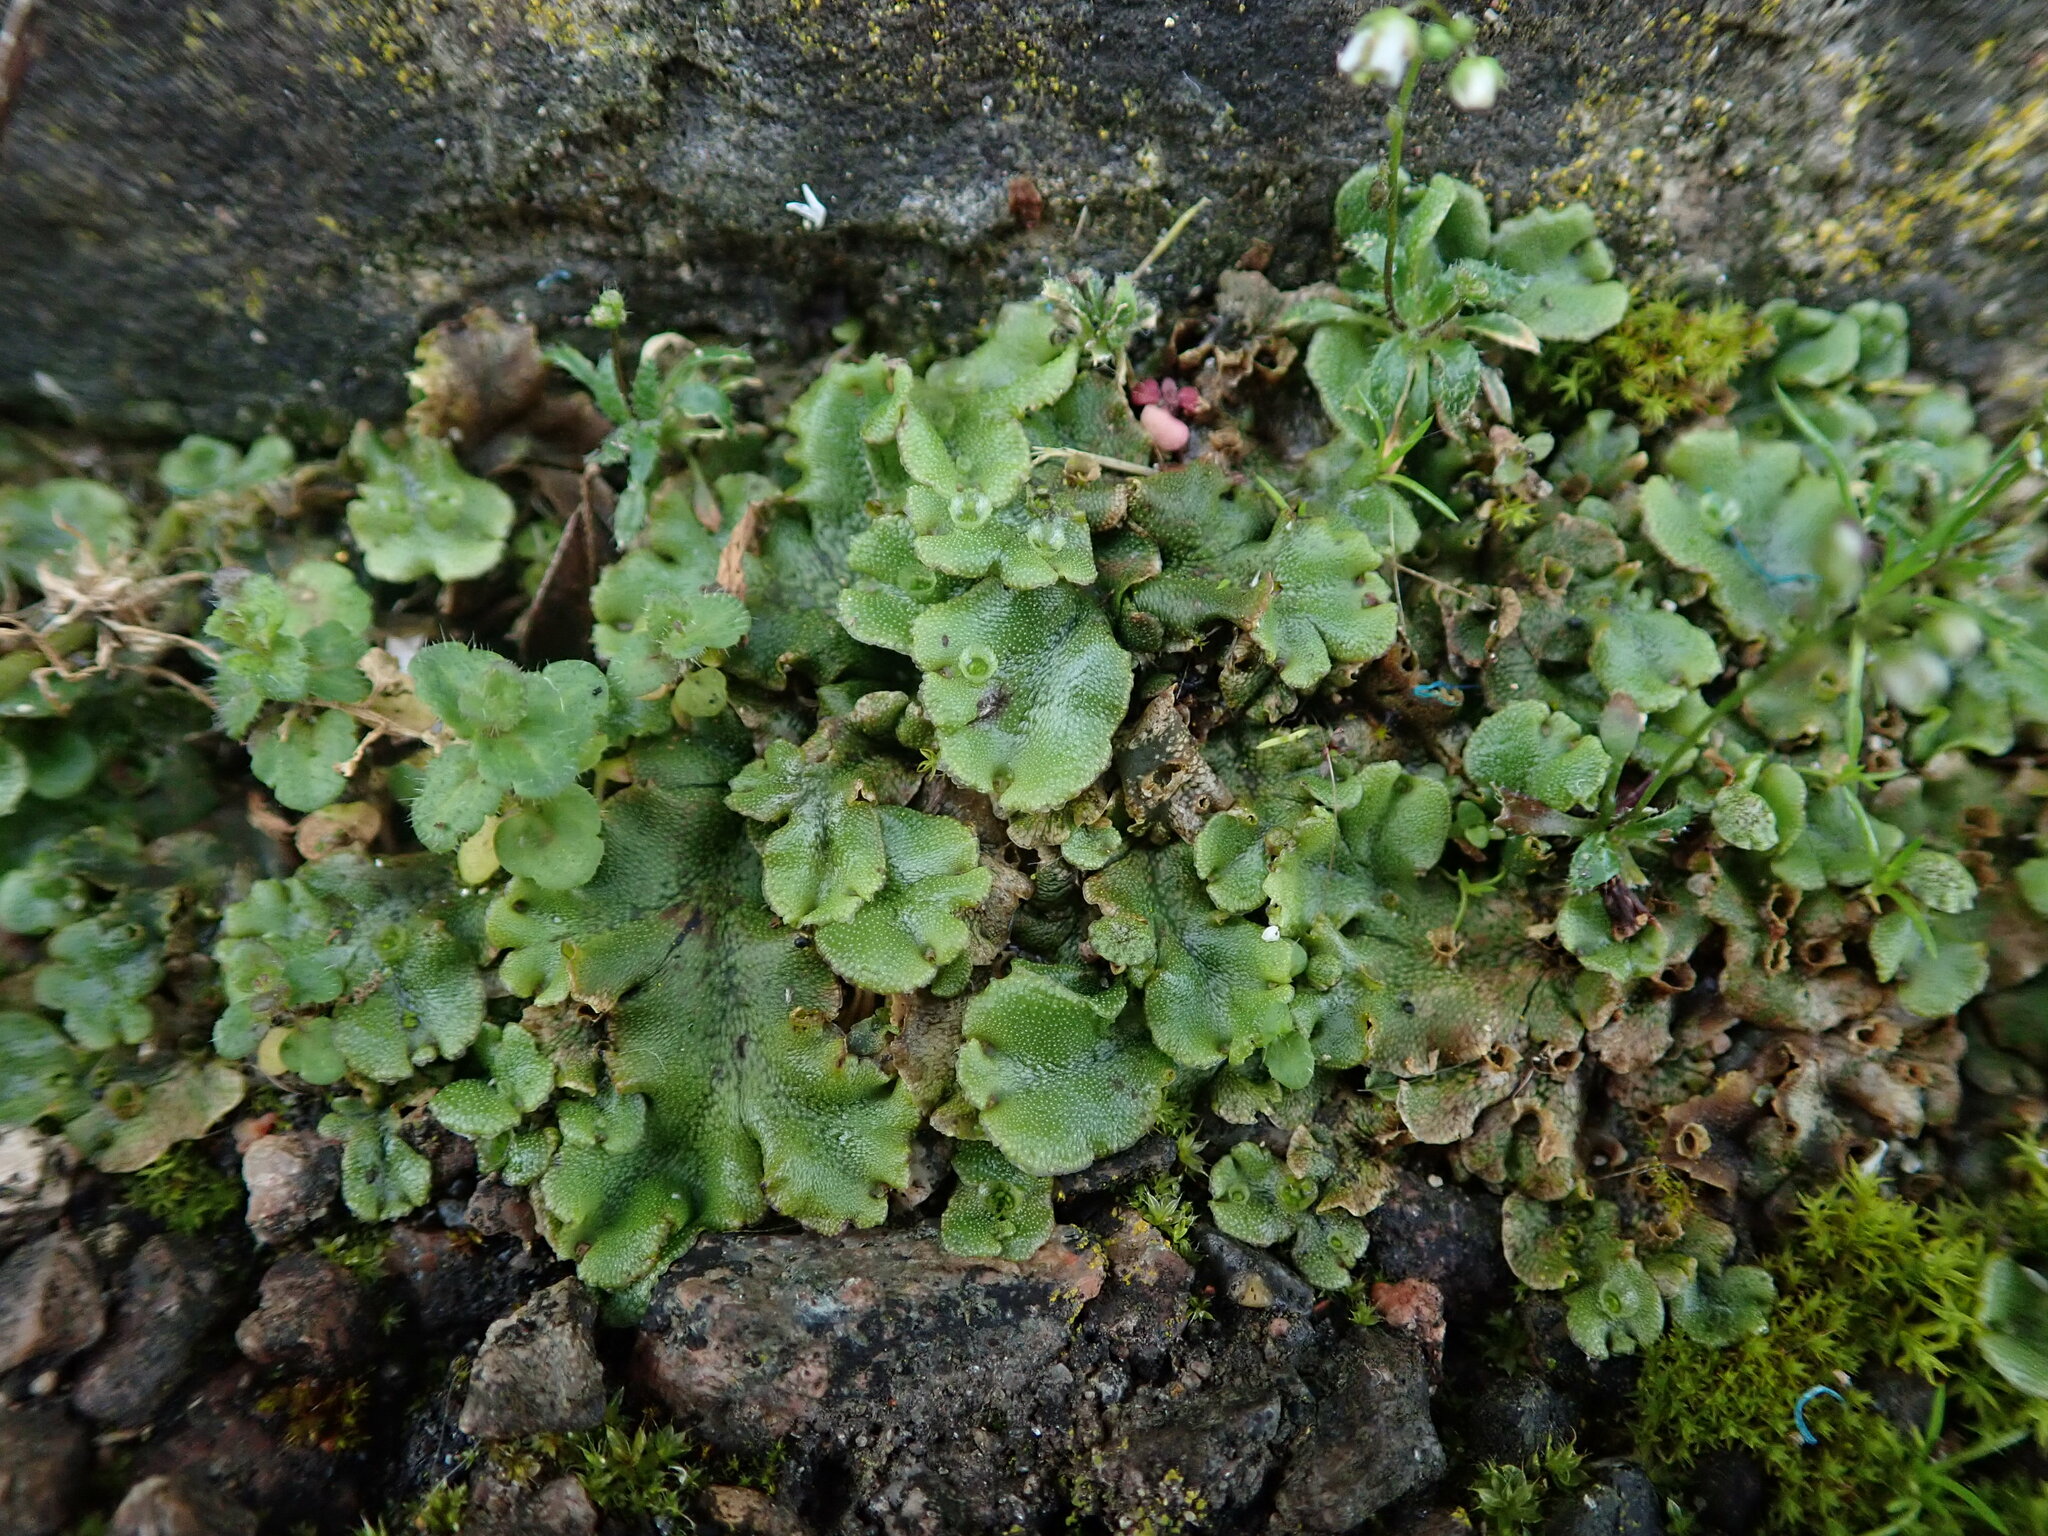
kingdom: Plantae
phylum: Marchantiophyta
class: Marchantiopsida
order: Marchantiales
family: Marchantiaceae
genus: Marchantia
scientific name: Marchantia polymorpha
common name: Common liverwort
